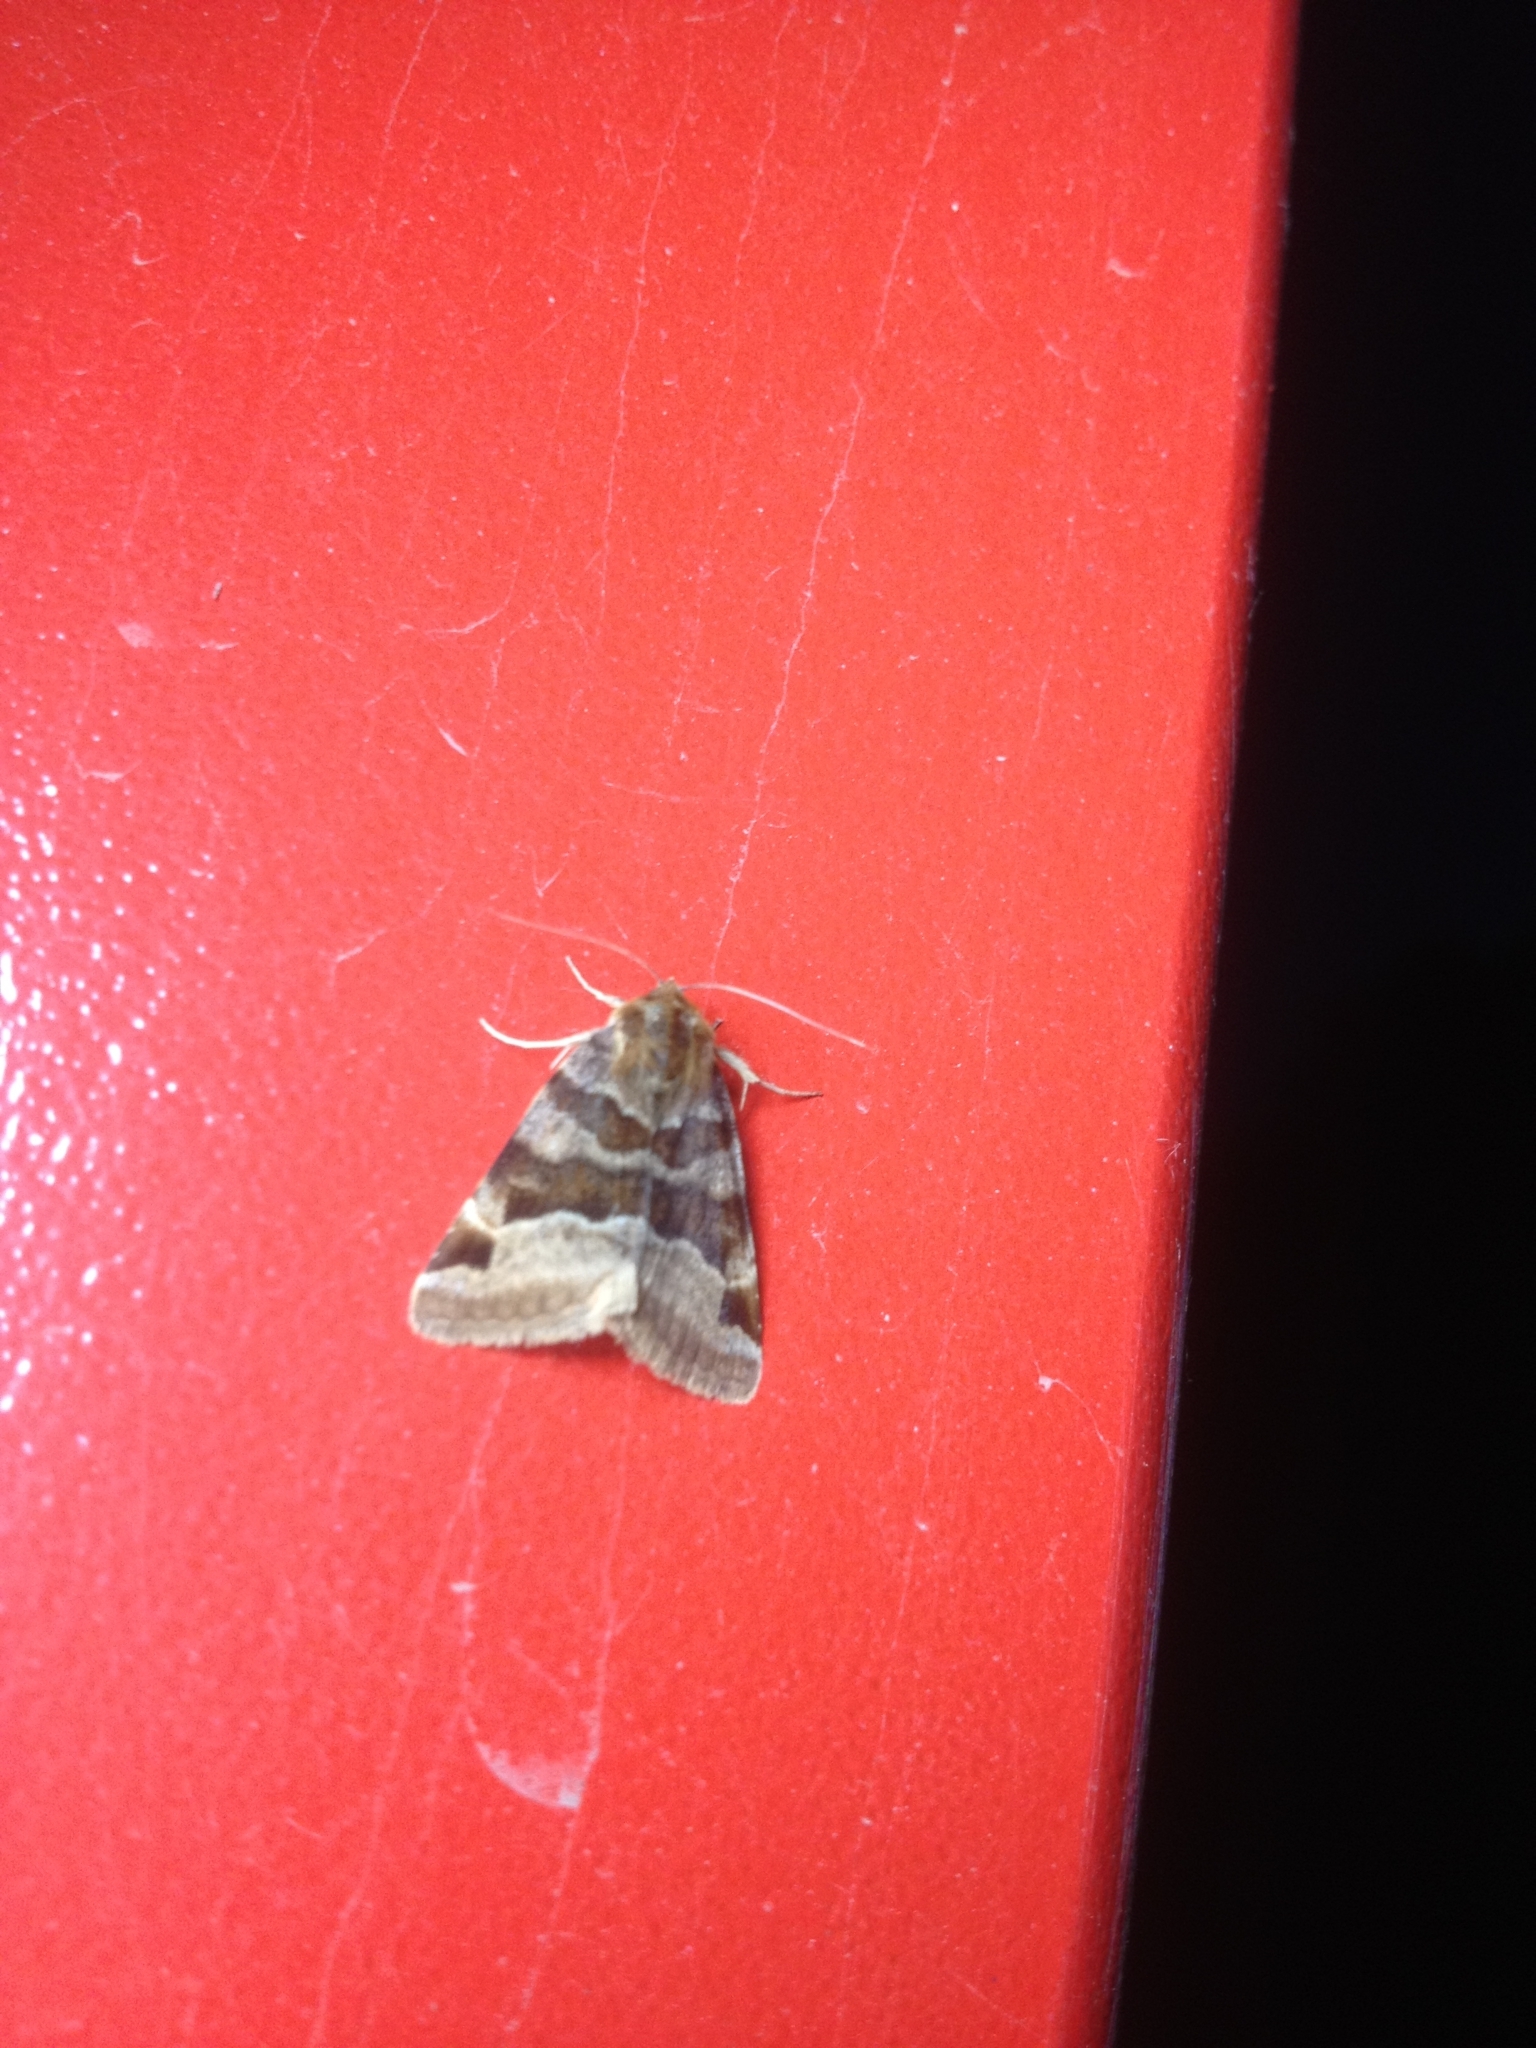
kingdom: Animalia
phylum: Arthropoda
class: Insecta
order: Lepidoptera
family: Erebidae
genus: Euclidia
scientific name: Euclidia glyphica
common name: Burnet companion
